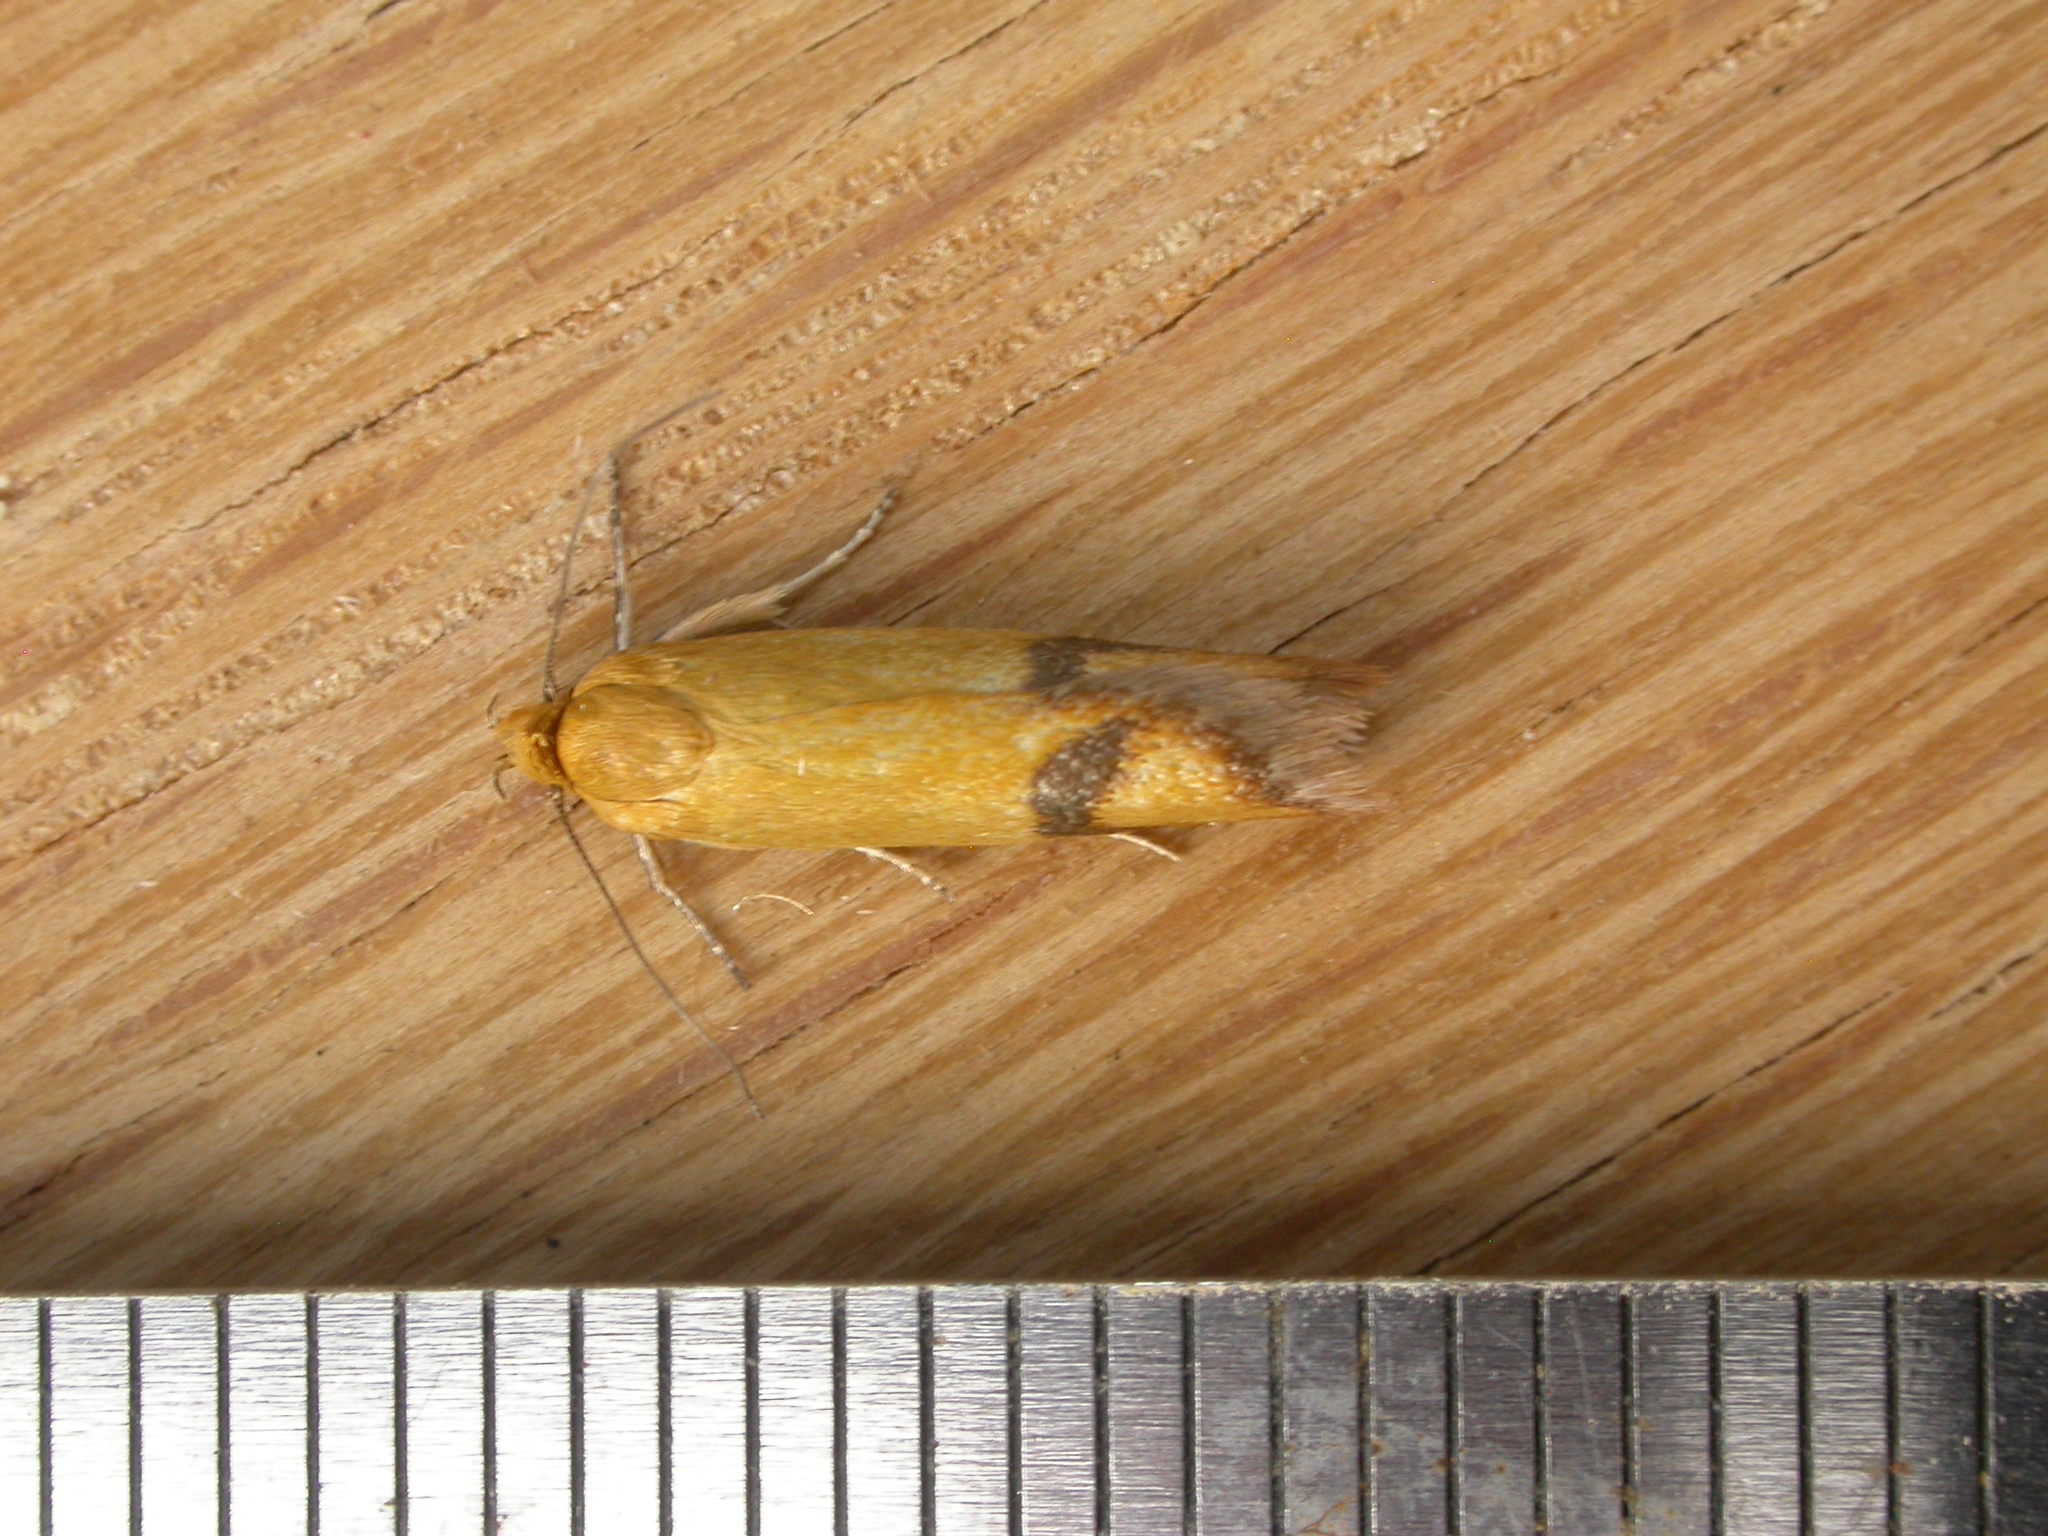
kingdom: Animalia
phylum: Arthropoda
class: Insecta
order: Lepidoptera
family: Oecophoridae
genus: Plectobela
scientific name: Plectobela zanclotoma
